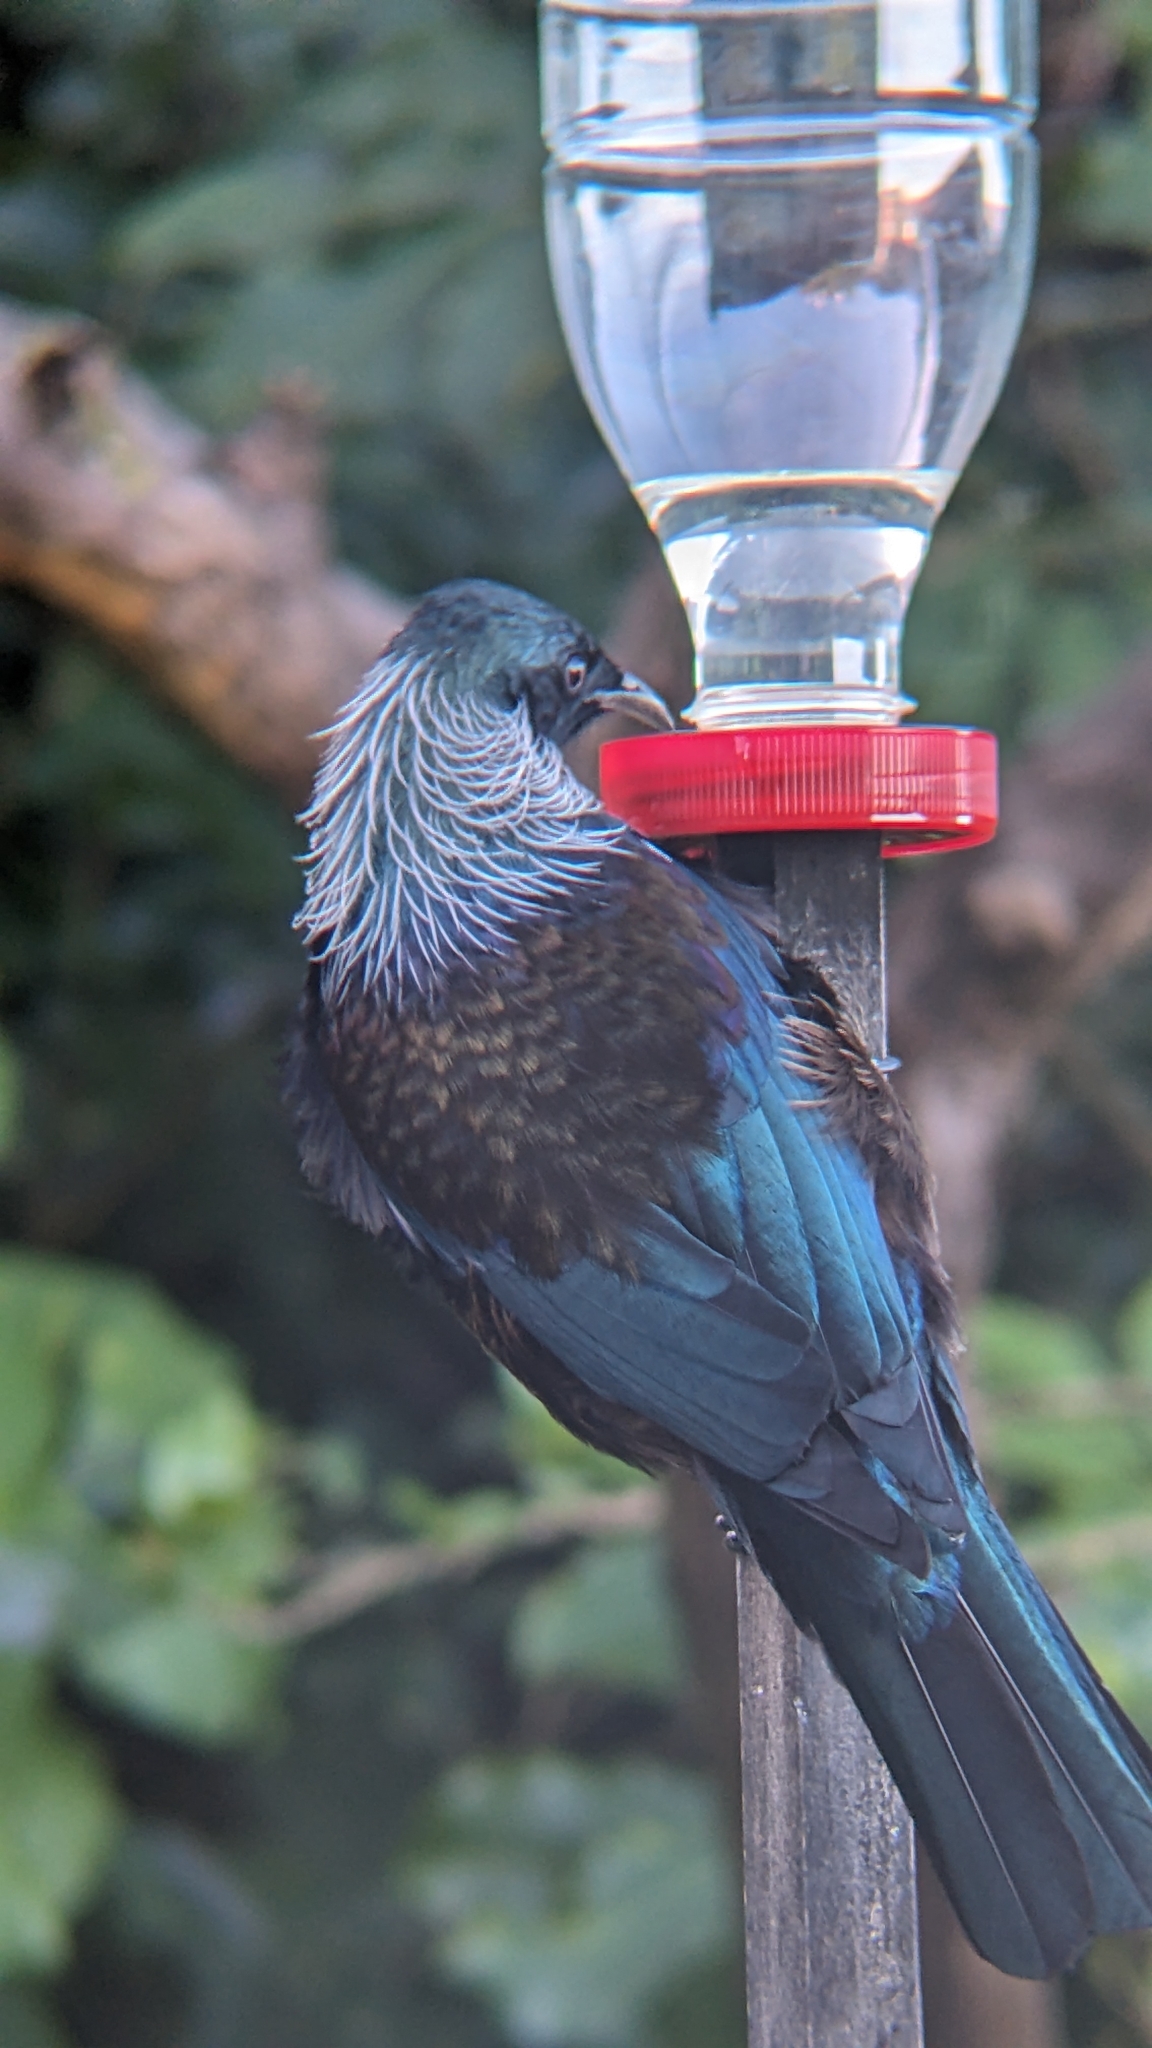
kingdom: Animalia
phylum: Chordata
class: Aves
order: Passeriformes
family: Meliphagidae
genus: Prosthemadera
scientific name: Prosthemadera novaeseelandiae
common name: Tui
